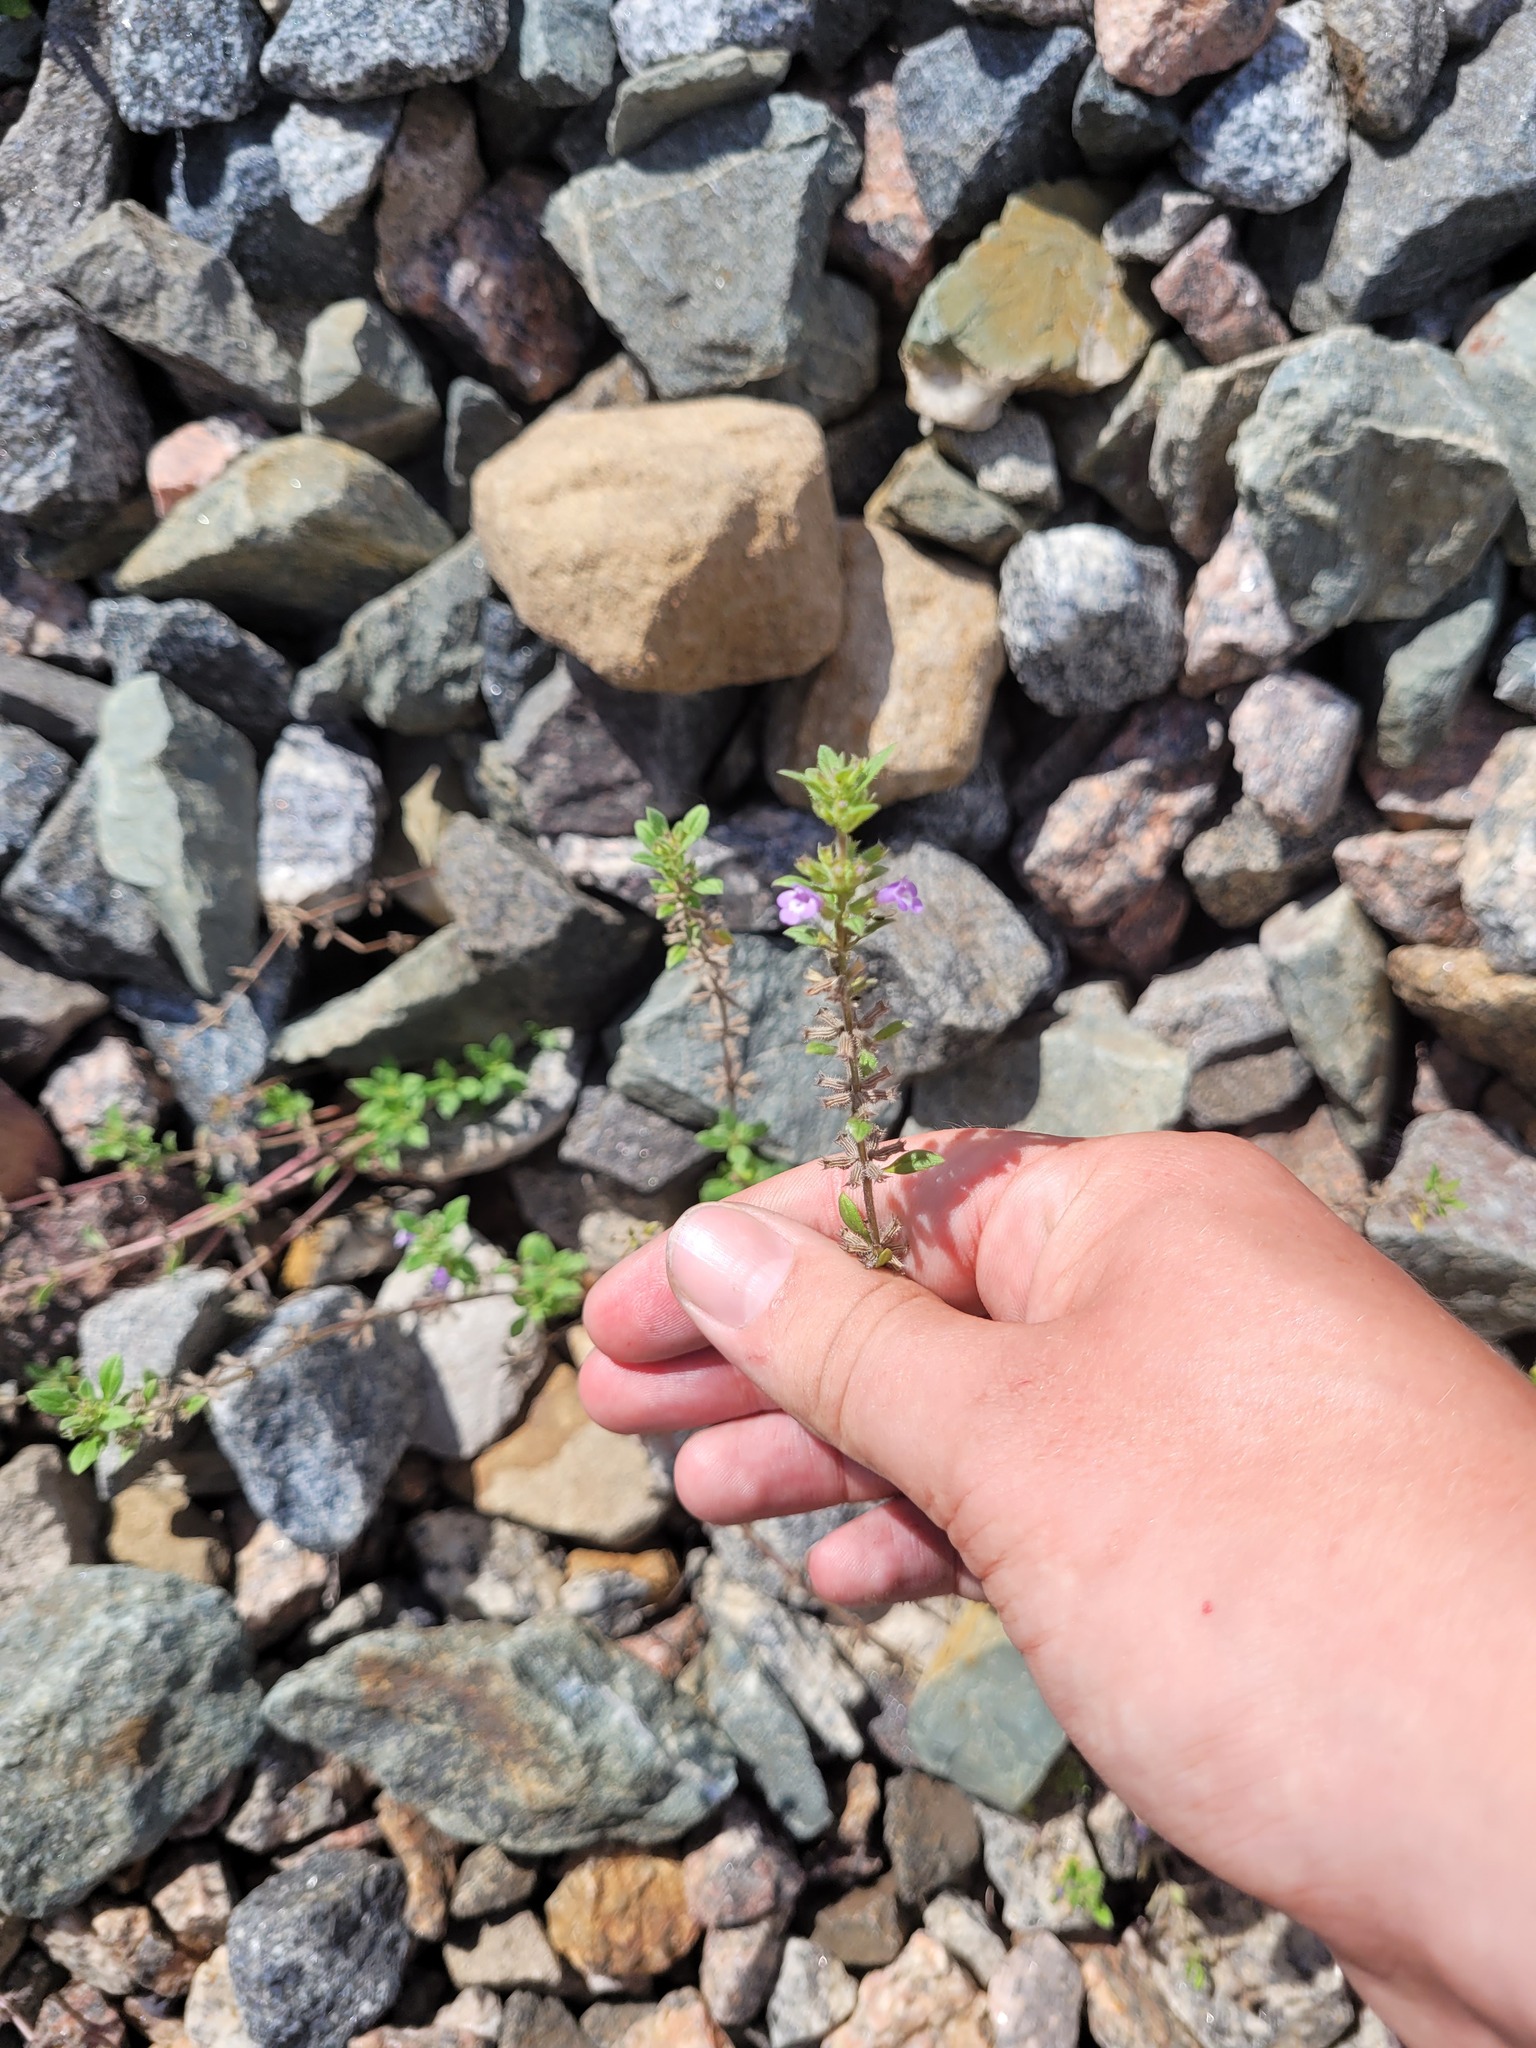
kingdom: Plantae
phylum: Tracheophyta
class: Magnoliopsida
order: Lamiales
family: Lamiaceae
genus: Clinopodium
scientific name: Clinopodium acinos
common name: Basil thyme
